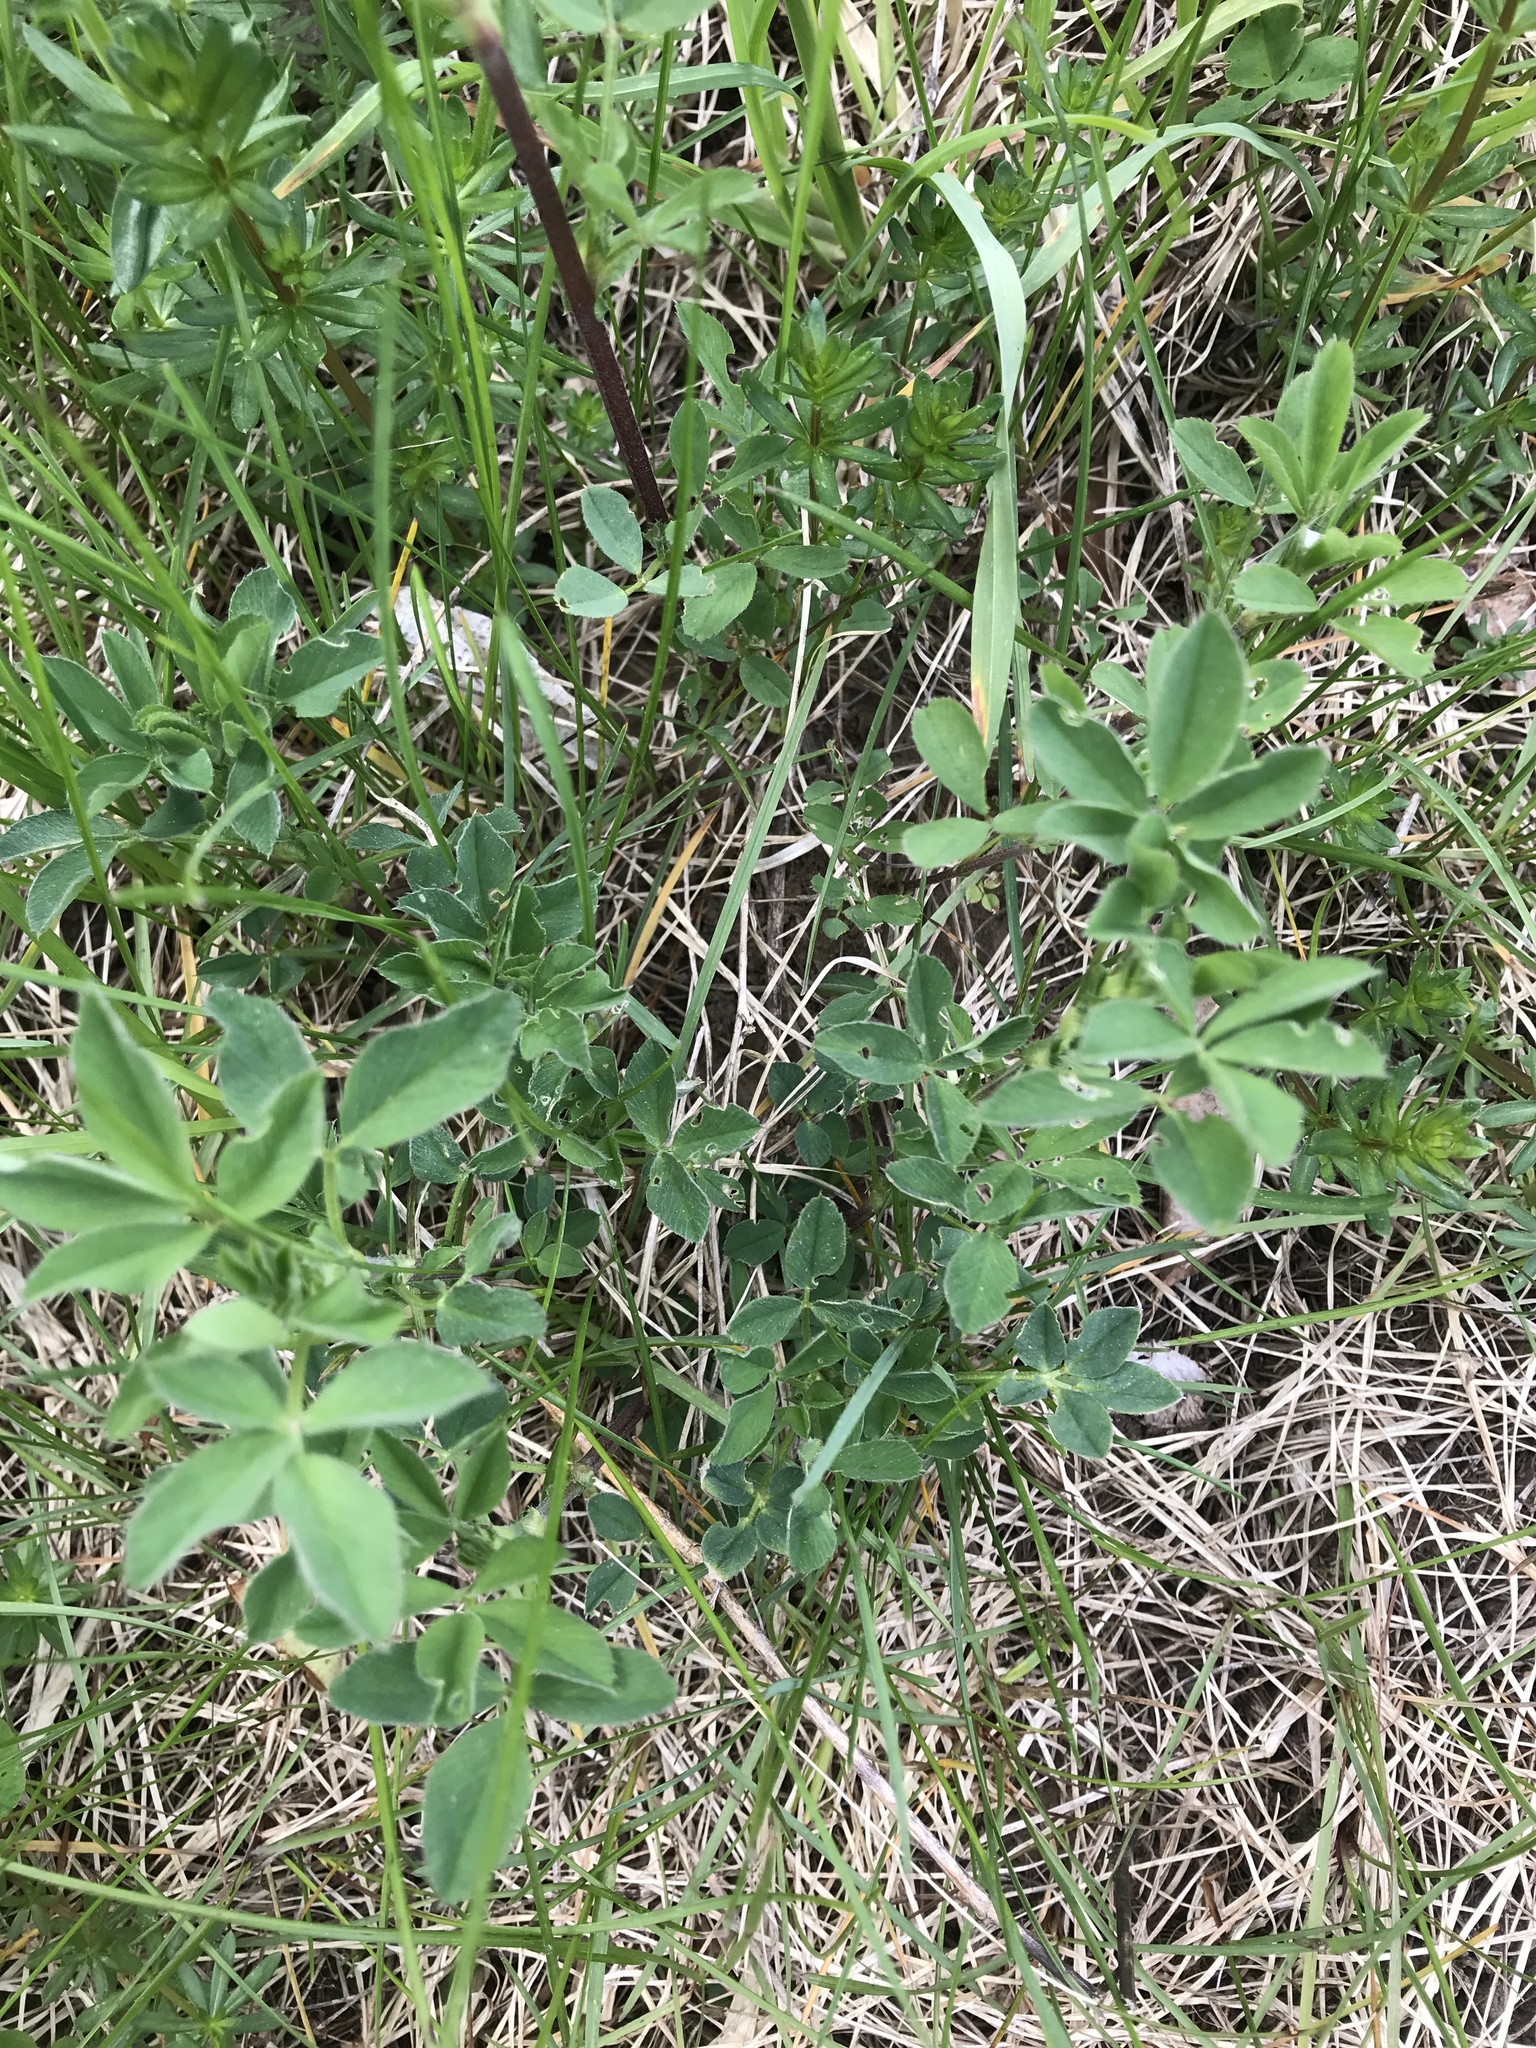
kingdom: Plantae
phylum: Tracheophyta
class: Magnoliopsida
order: Fabales
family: Fabaceae
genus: Lotus
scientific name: Lotus corniculatus
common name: Common bird's-foot-trefoil
